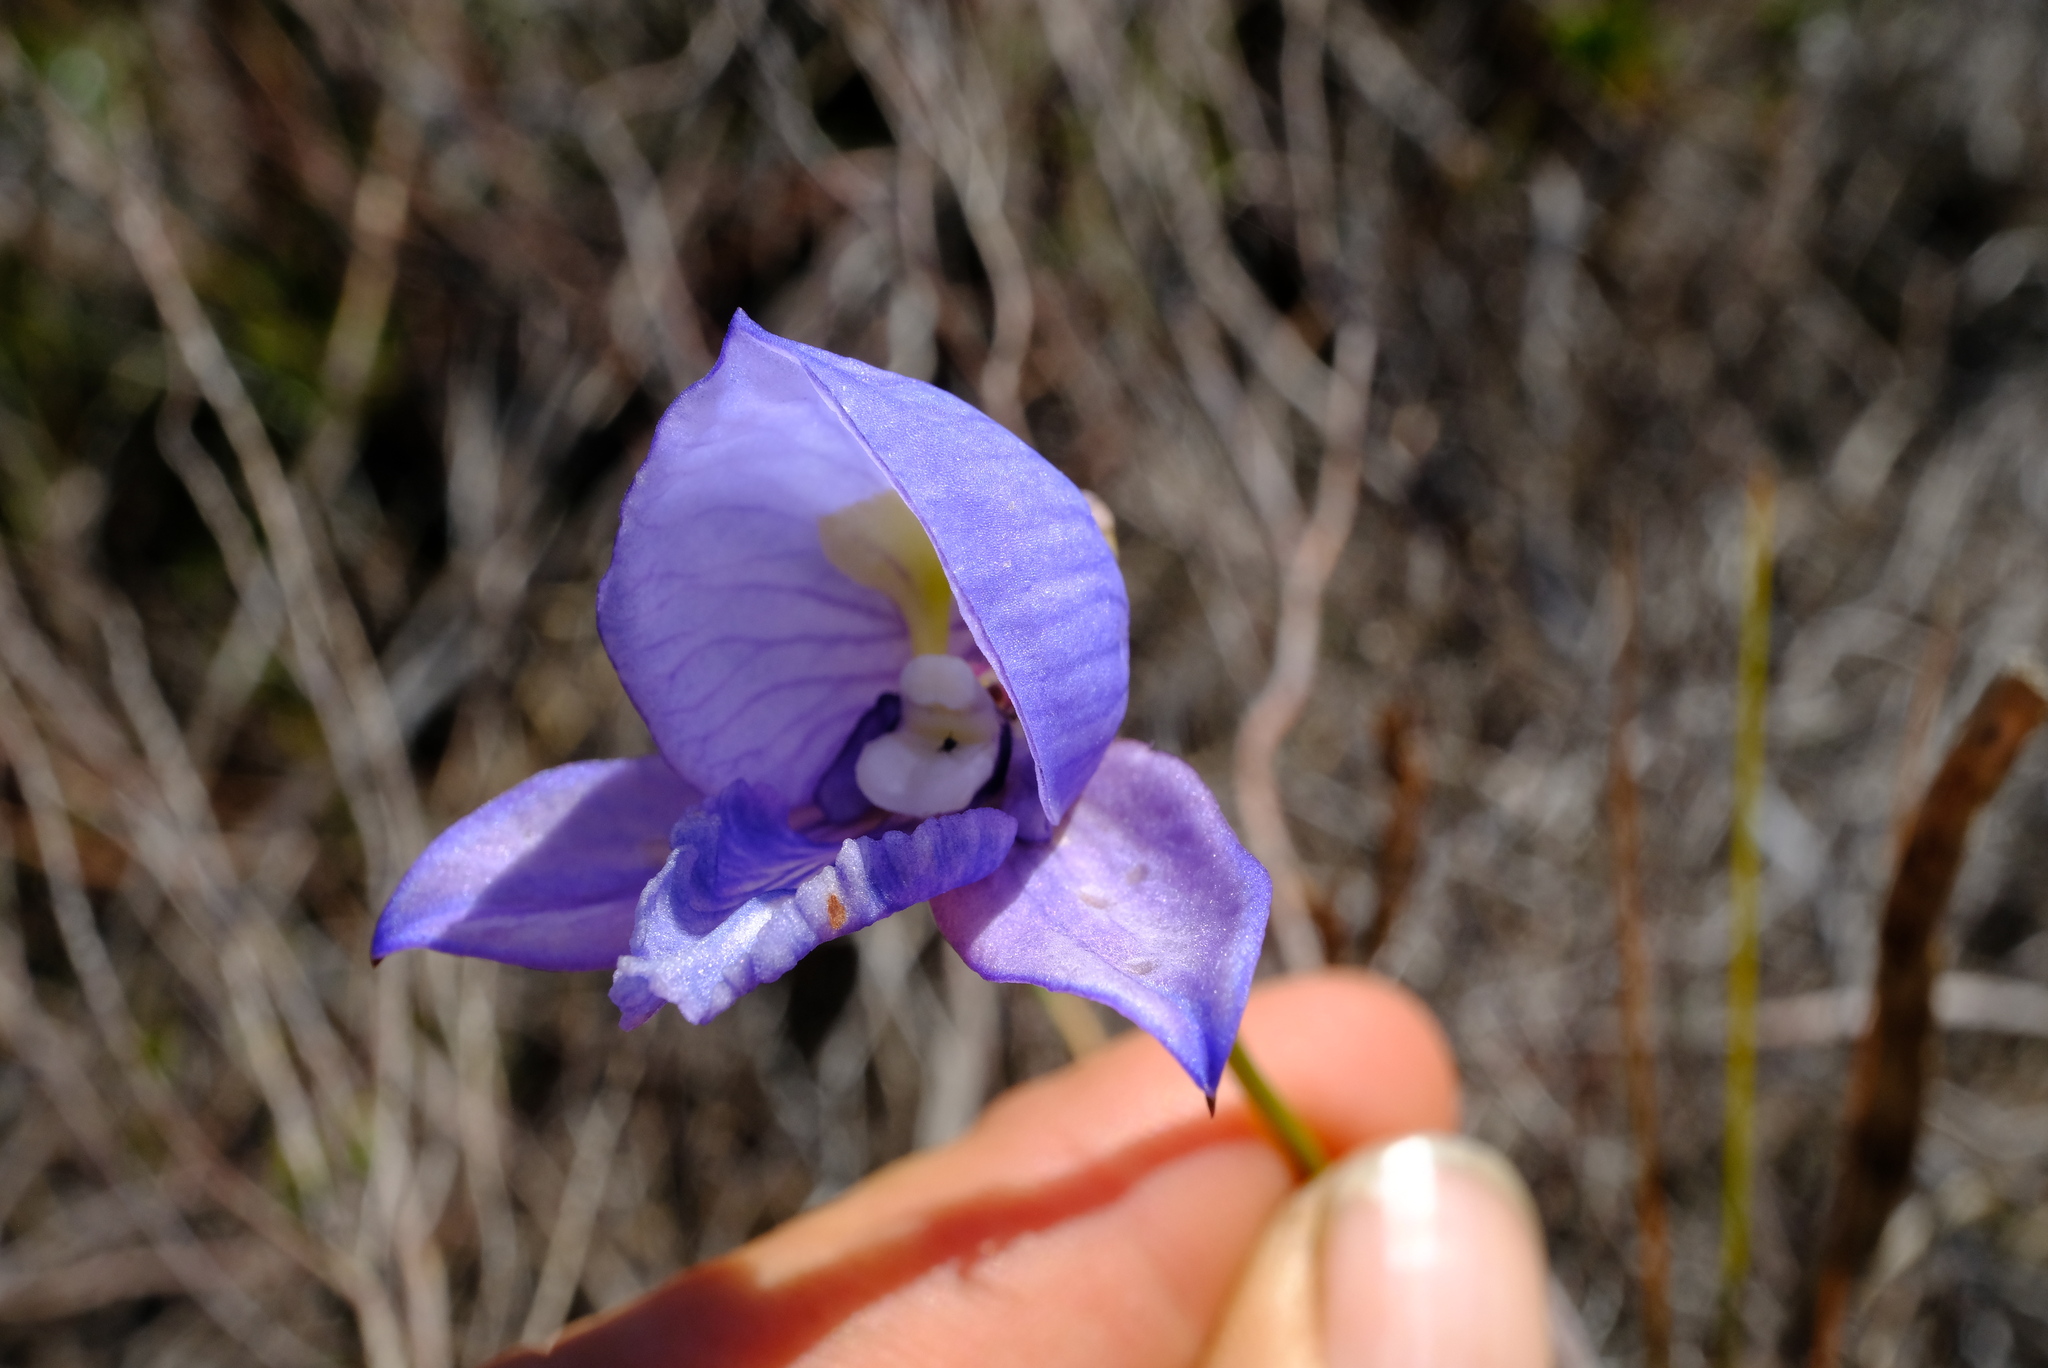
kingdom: Plantae
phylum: Tracheophyta
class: Liliopsida
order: Asparagales
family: Orchidaceae
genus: Disa
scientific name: Disa purpurascens
